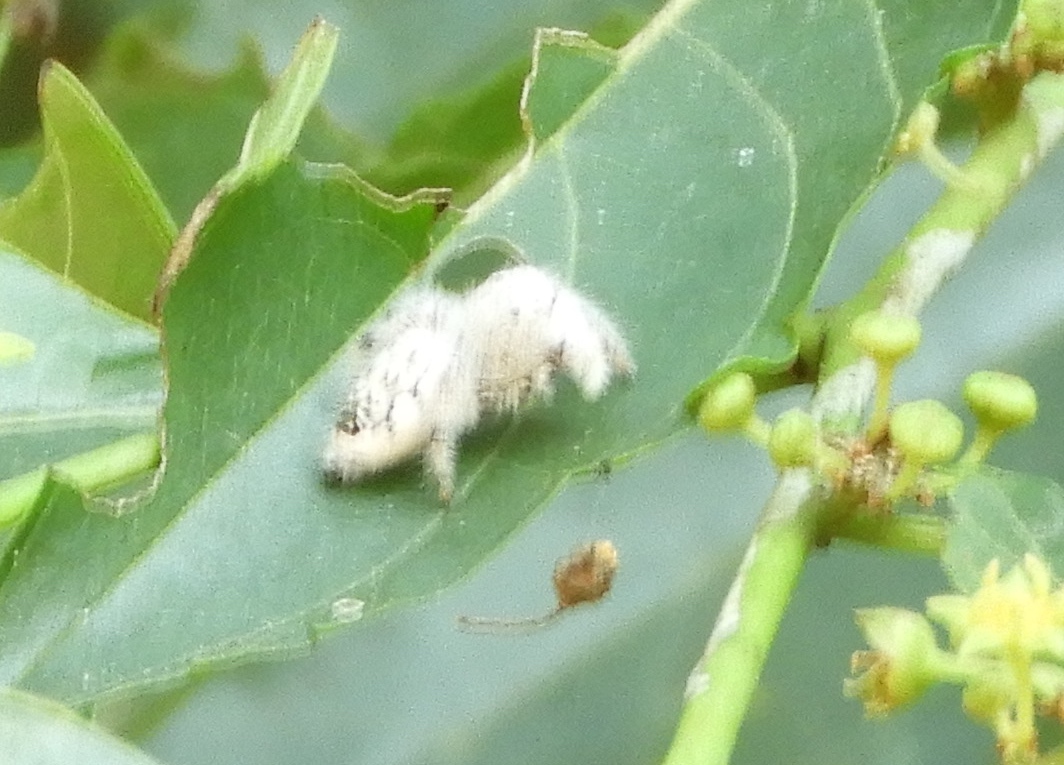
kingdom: Animalia
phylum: Arthropoda
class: Arachnida
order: Araneae
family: Salticidae
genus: Paraphidippus
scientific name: Paraphidippus fartilis
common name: Jumping spiders
